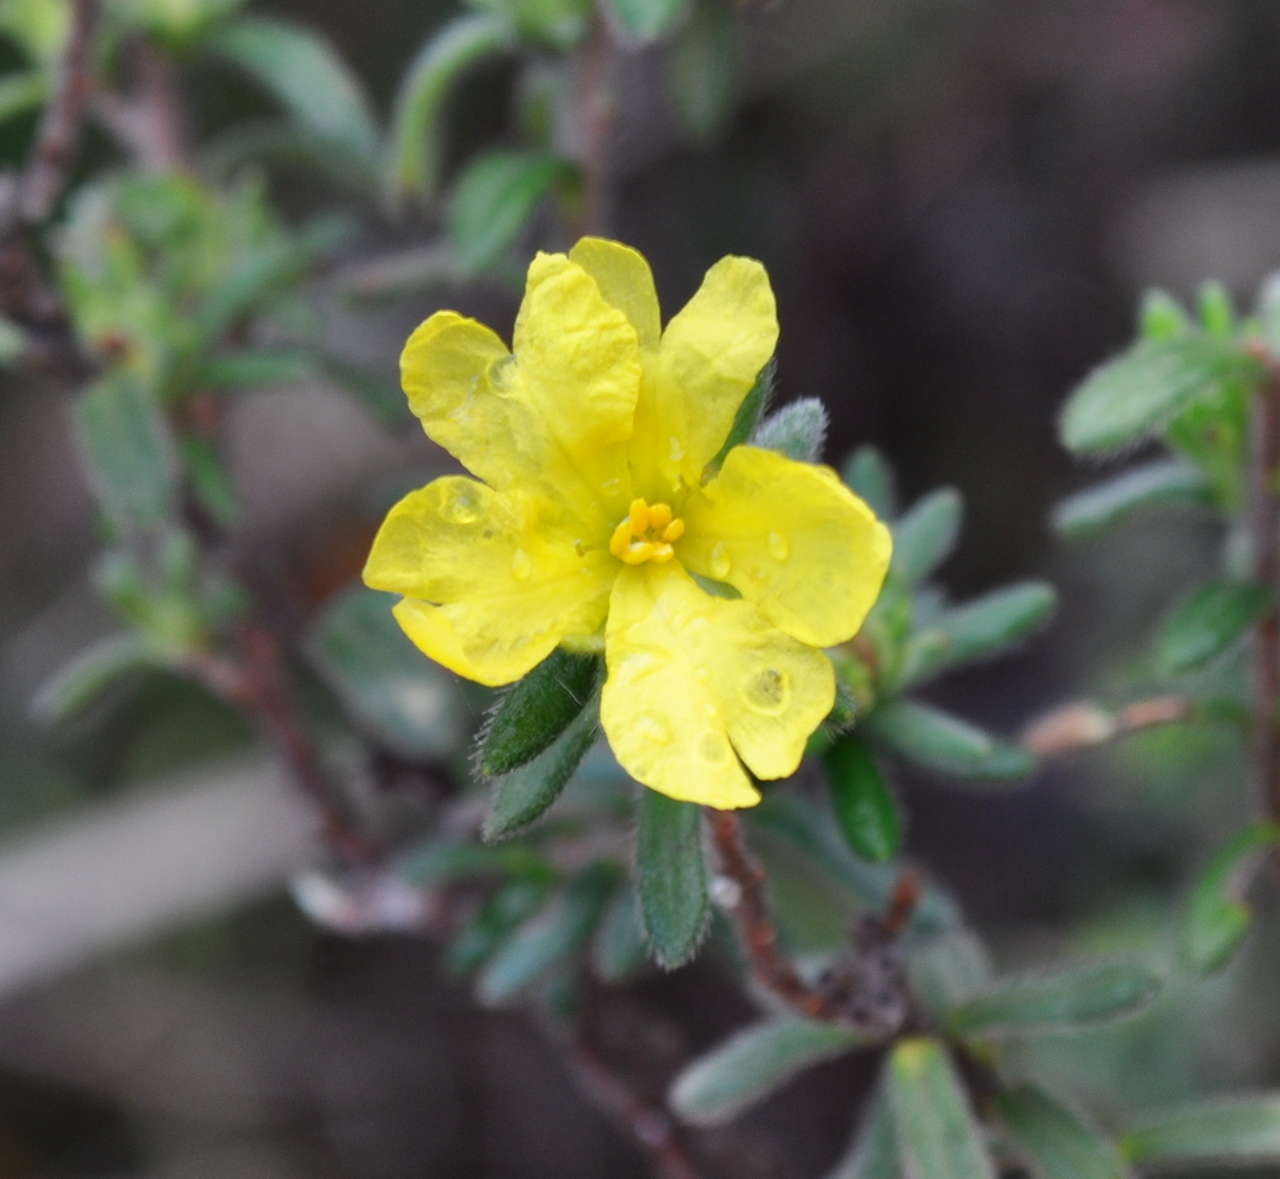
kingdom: Plantae
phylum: Tracheophyta
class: Magnoliopsida
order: Dilleniales
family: Dilleniaceae
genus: Hibbertia
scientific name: Hibbertia sericea
